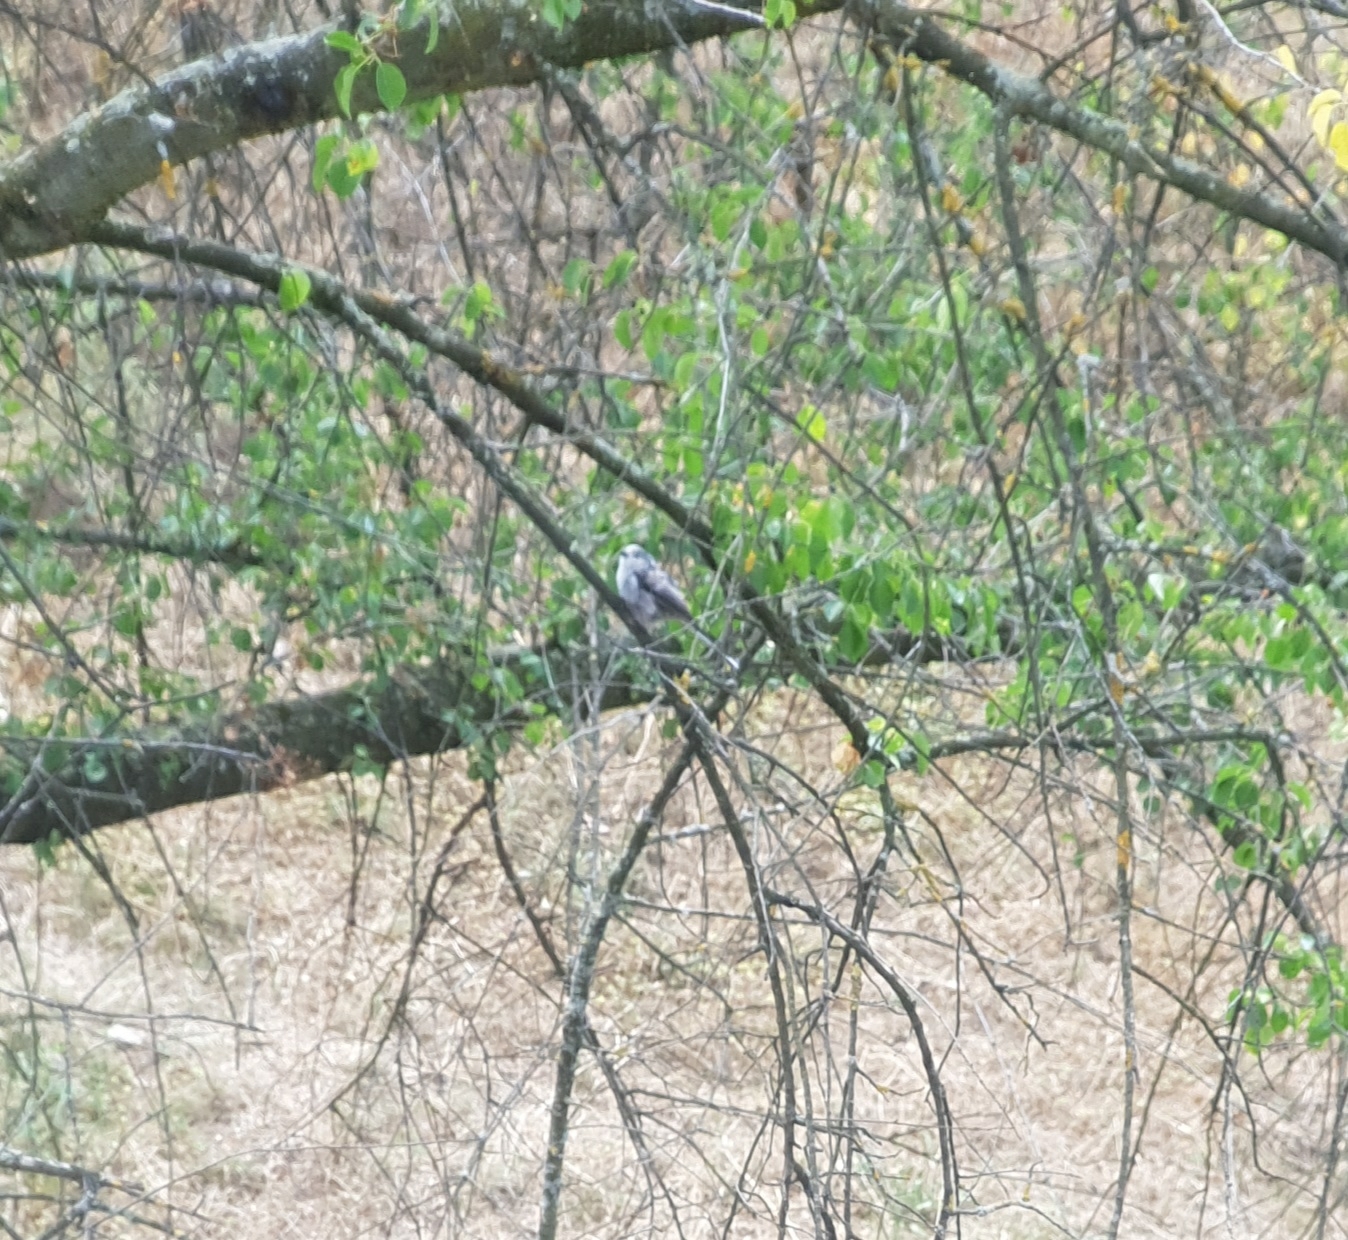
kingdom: Animalia
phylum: Chordata
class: Aves
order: Passeriformes
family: Aegithalidae
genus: Aegithalos
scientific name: Aegithalos caudatus
